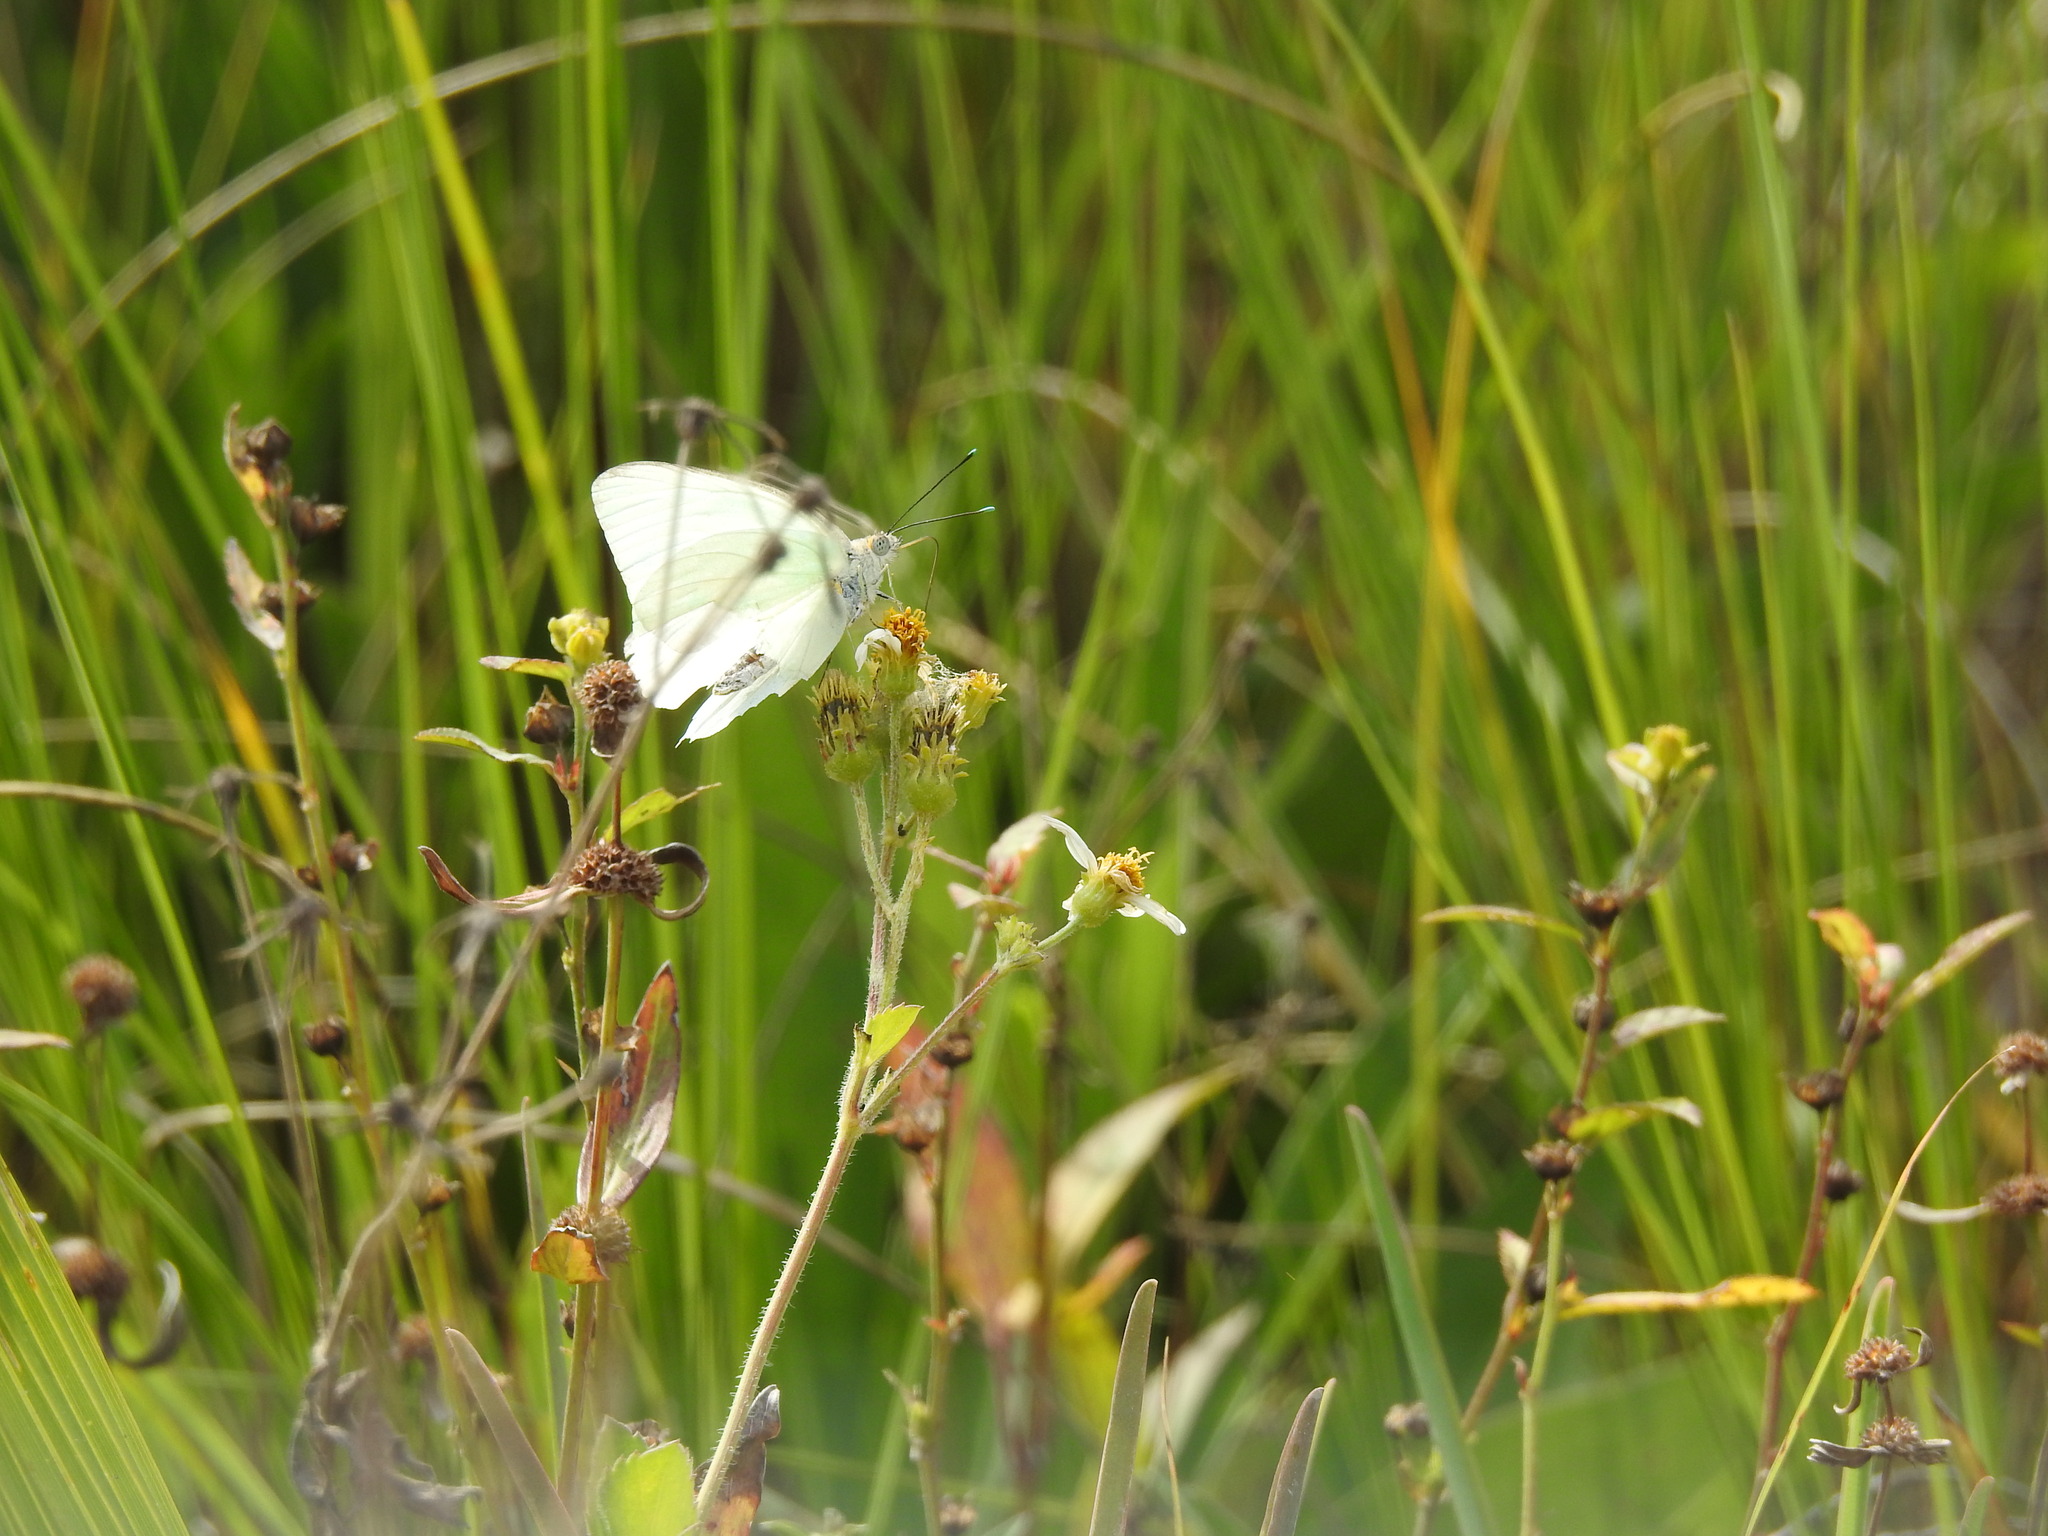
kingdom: Animalia
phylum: Arthropoda
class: Insecta
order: Lepidoptera
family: Pieridae
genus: Ascia
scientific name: Ascia monuste
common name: Great southern white
